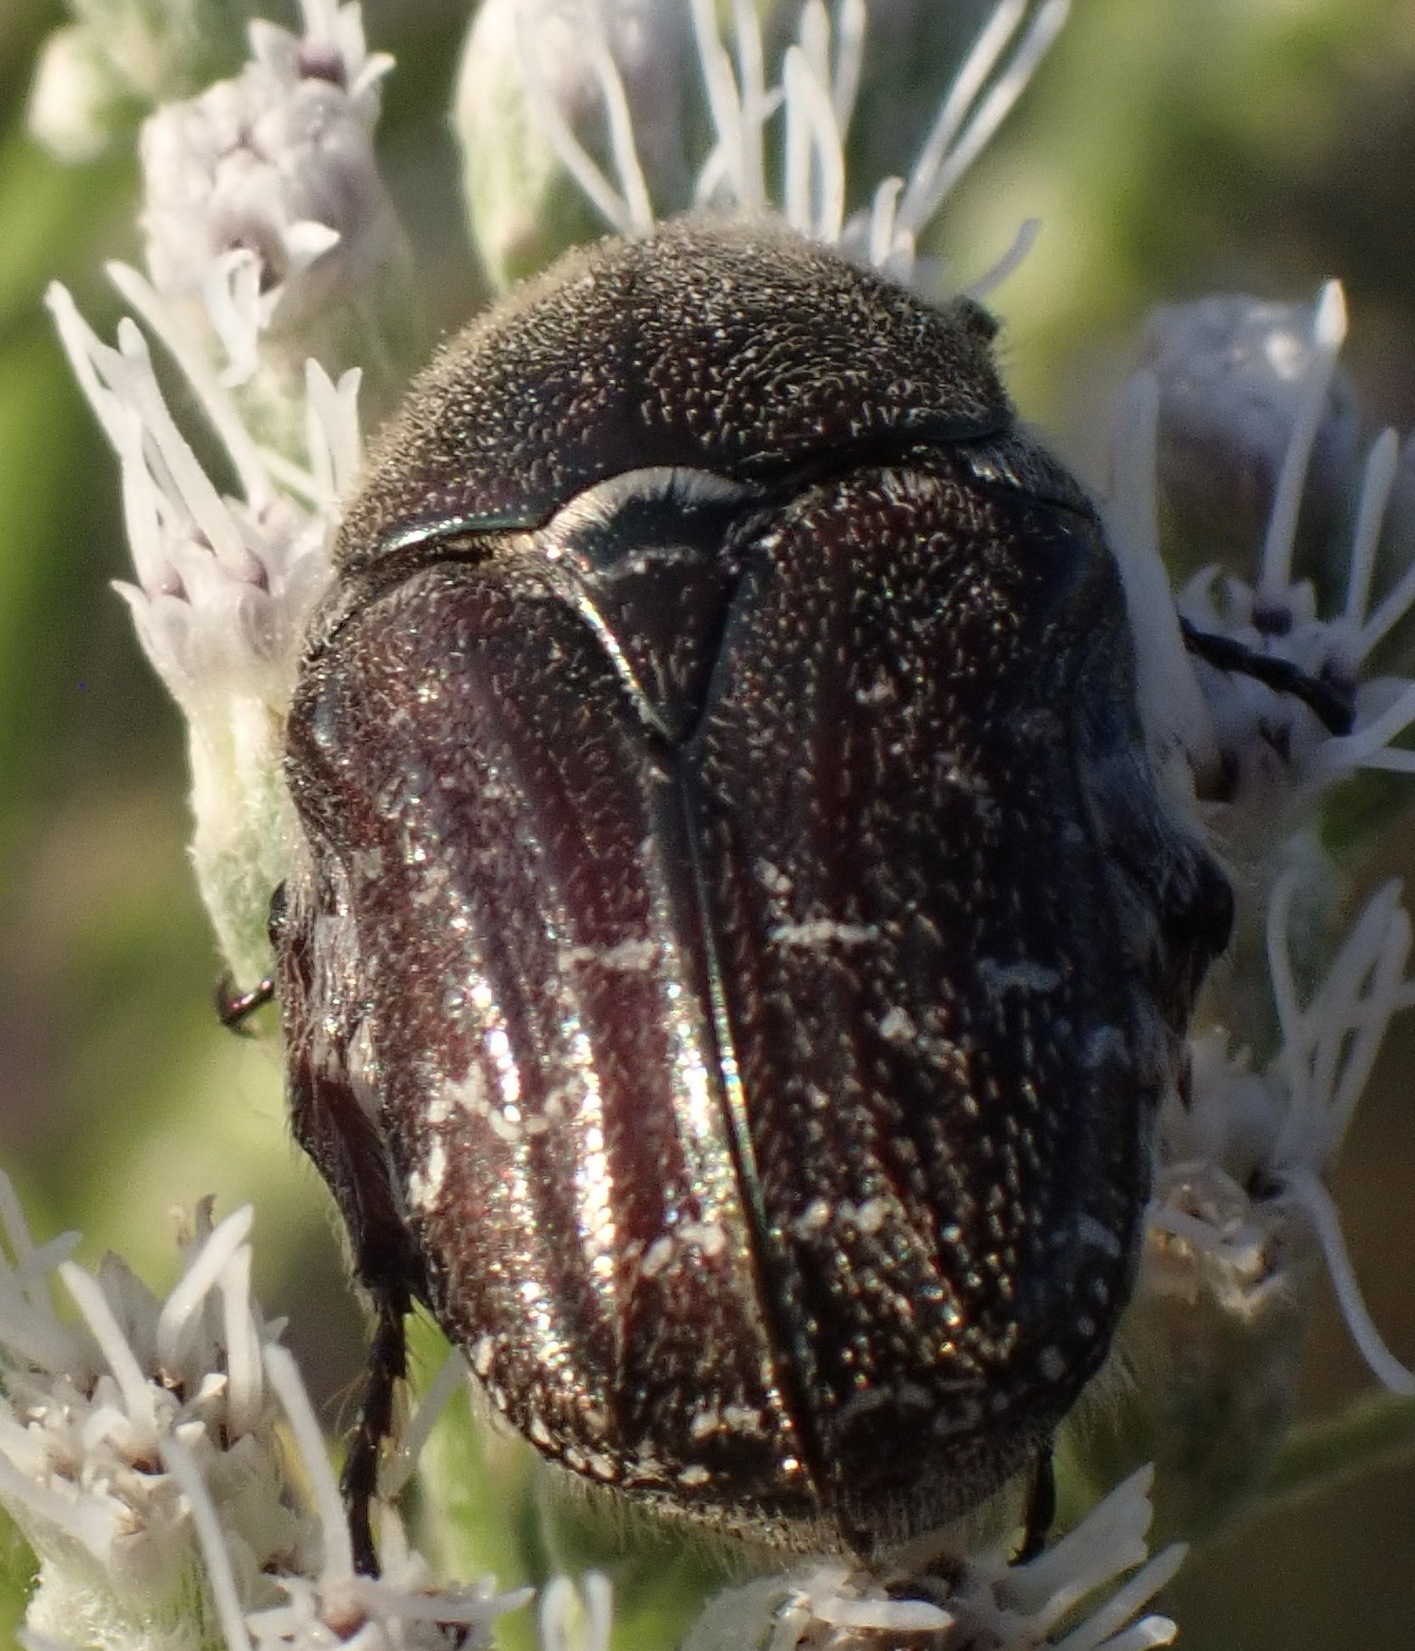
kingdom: Animalia
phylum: Arthropoda
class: Insecta
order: Coleoptera
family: Scarabaeidae
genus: Euphoria
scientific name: Euphoria sepulcralis
